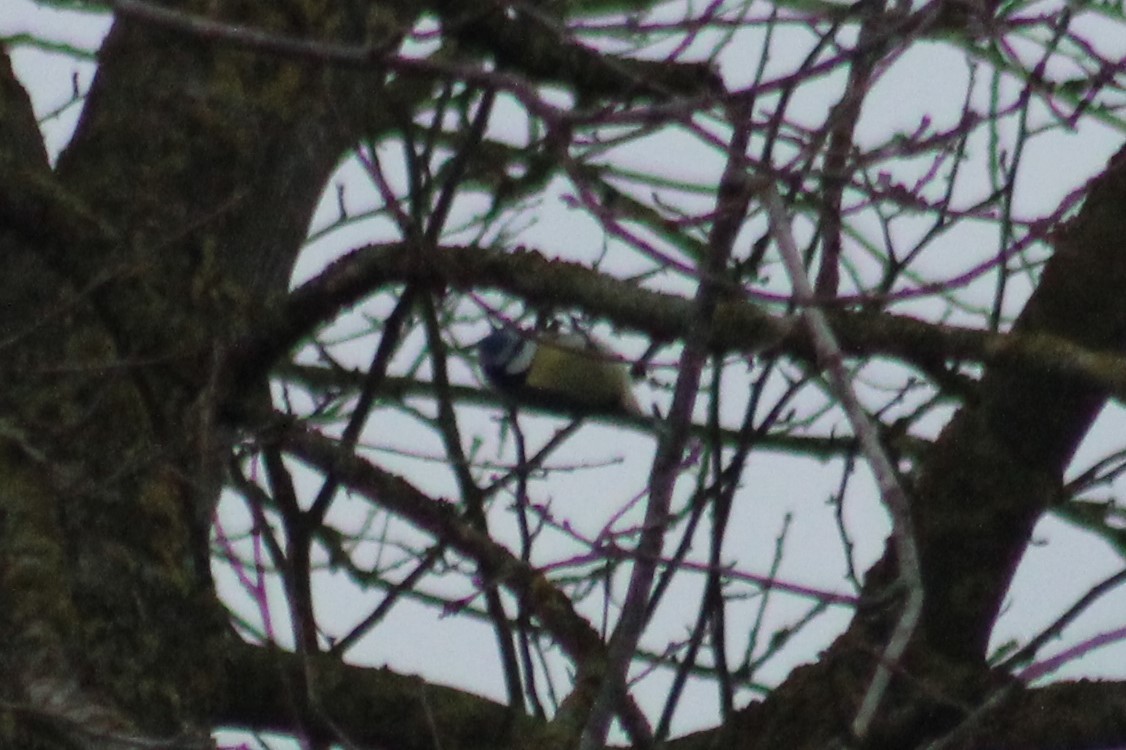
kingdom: Animalia
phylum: Chordata
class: Aves
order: Passeriformes
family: Paridae
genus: Cyanistes
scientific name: Cyanistes caeruleus
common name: Eurasian blue tit
